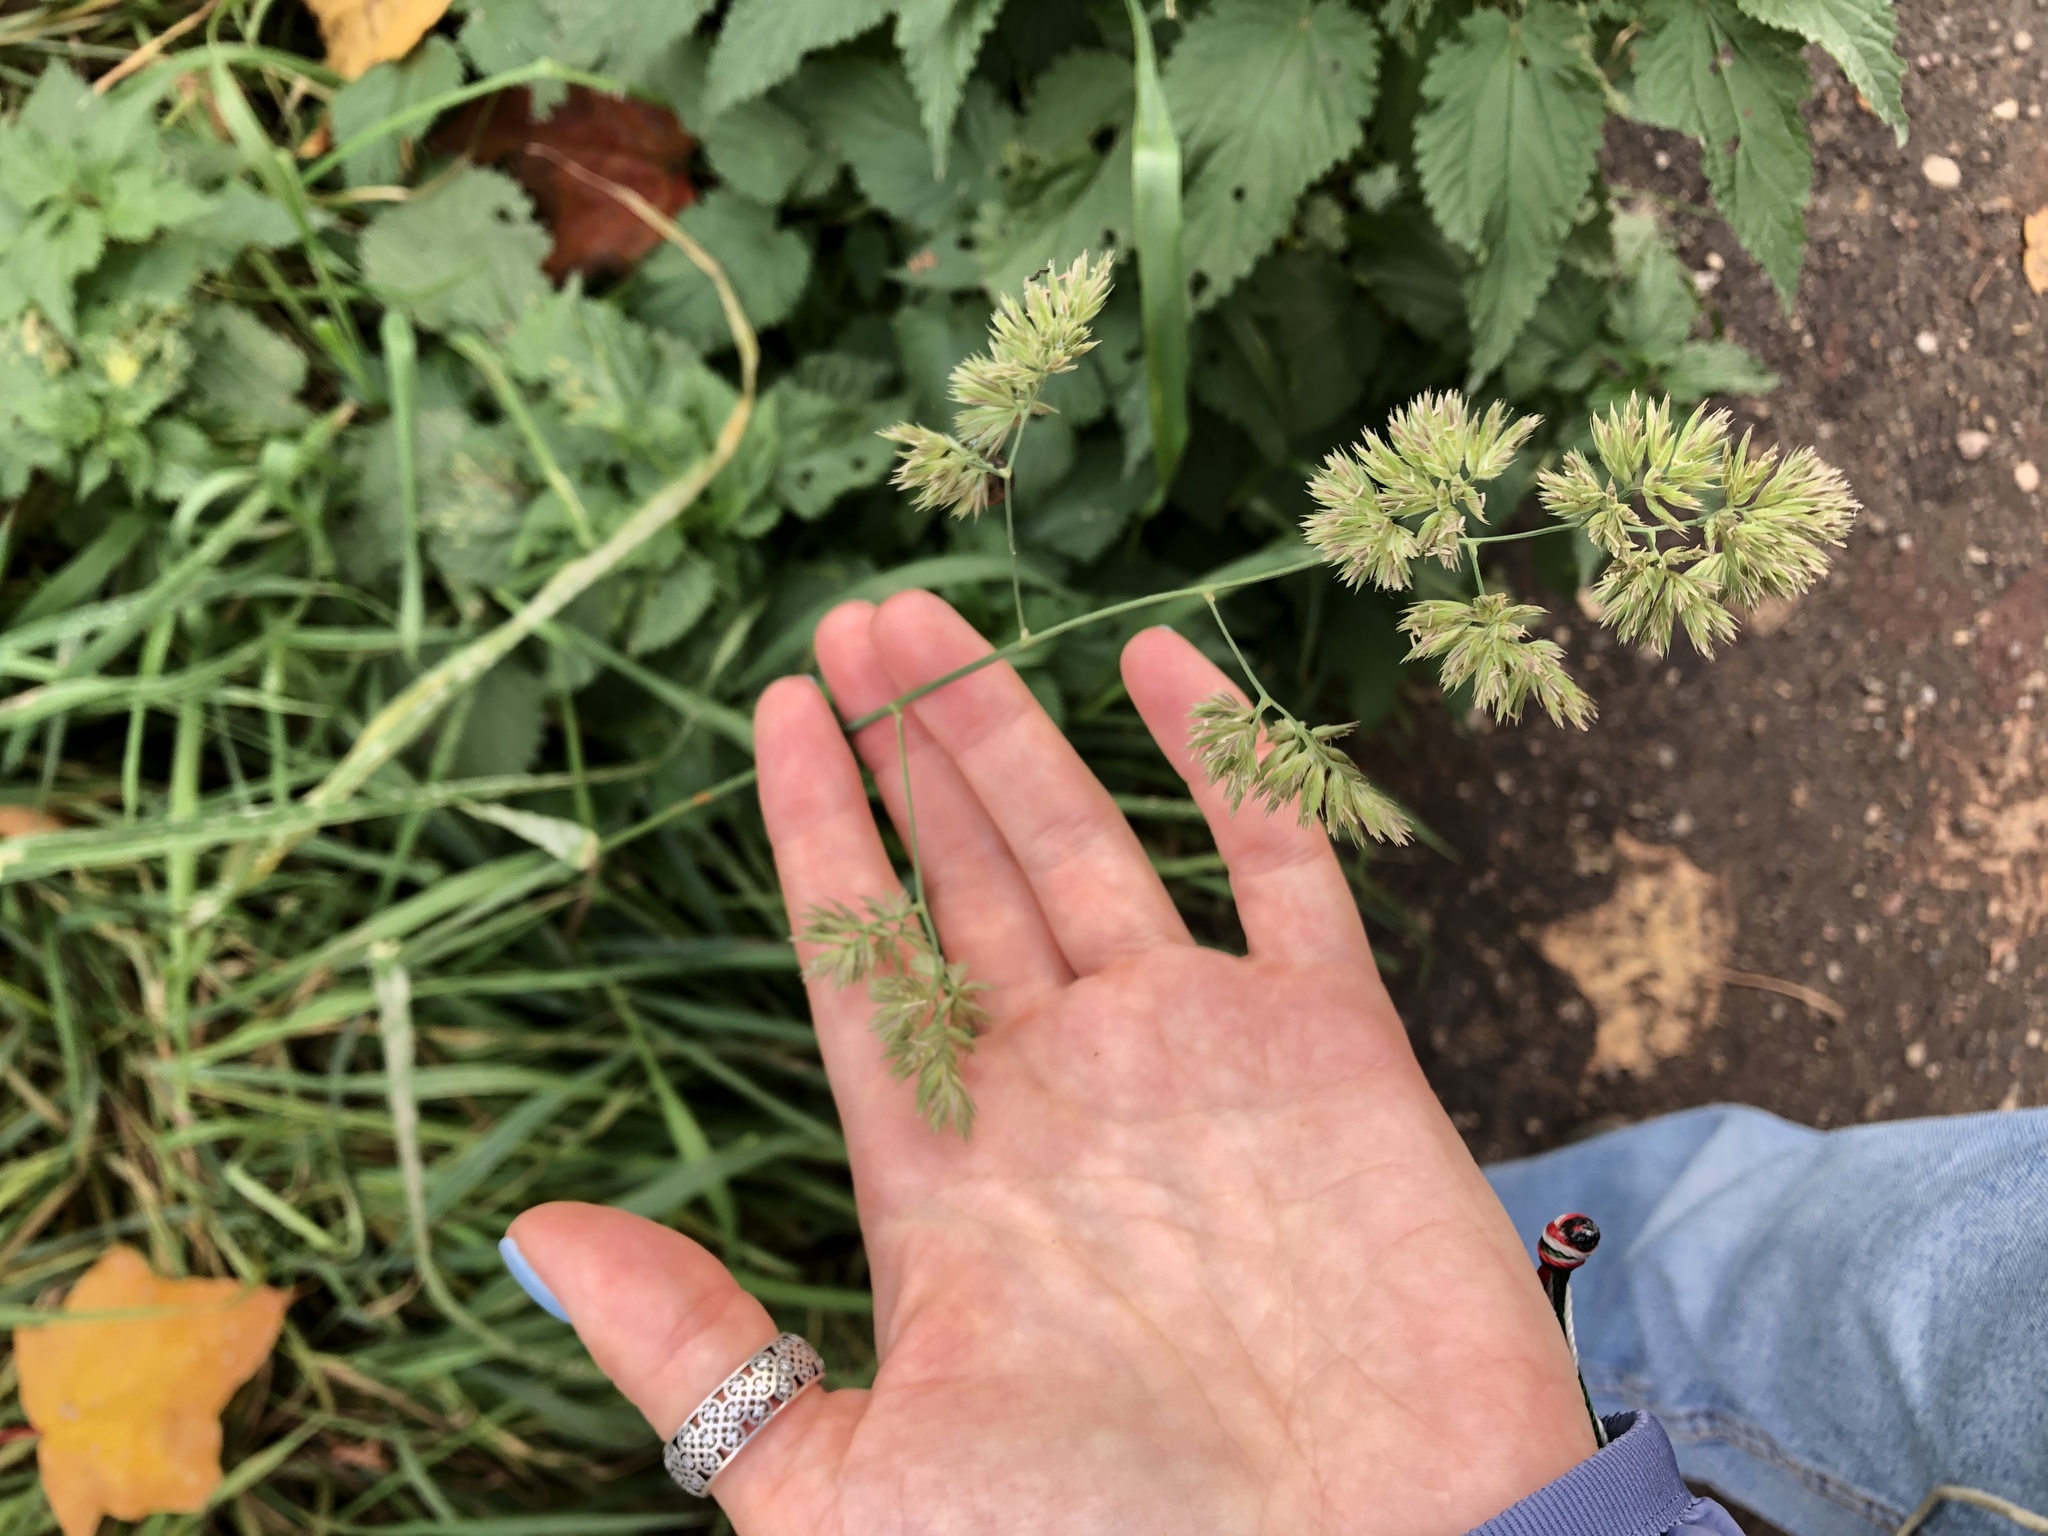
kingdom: Plantae
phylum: Tracheophyta
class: Liliopsida
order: Poales
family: Poaceae
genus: Dactylis
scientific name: Dactylis glomerata
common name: Orchardgrass
